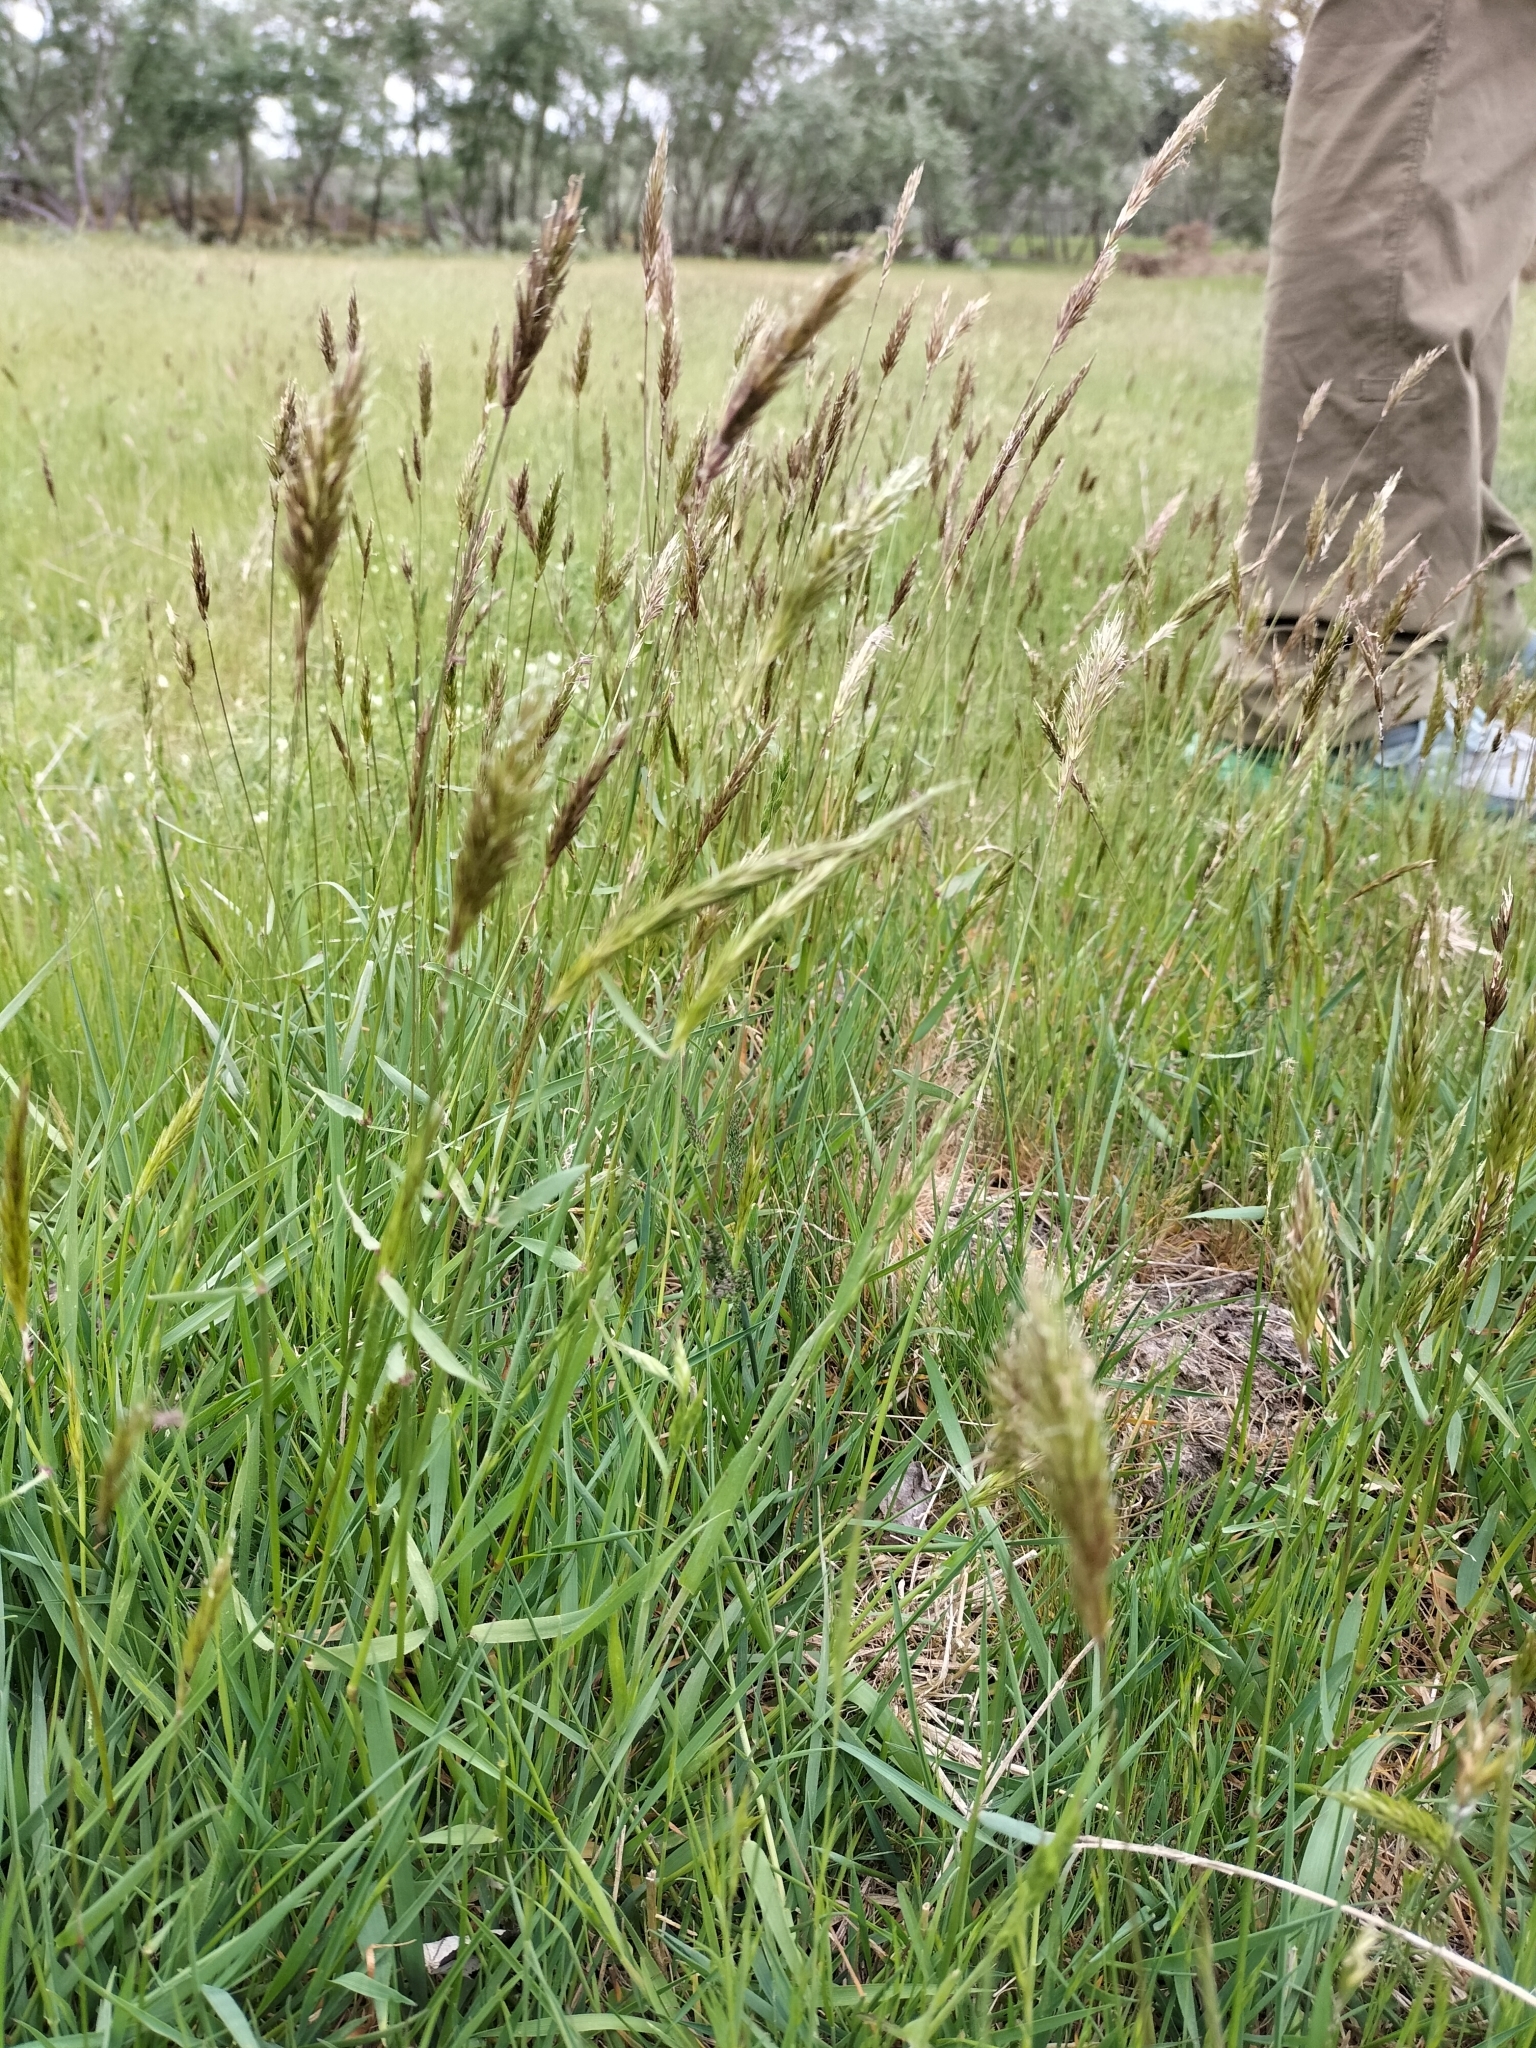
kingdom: Plantae
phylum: Tracheophyta
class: Liliopsida
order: Poales
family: Poaceae
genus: Anthoxanthum
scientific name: Anthoxanthum odoratum
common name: Sweet vernalgrass
